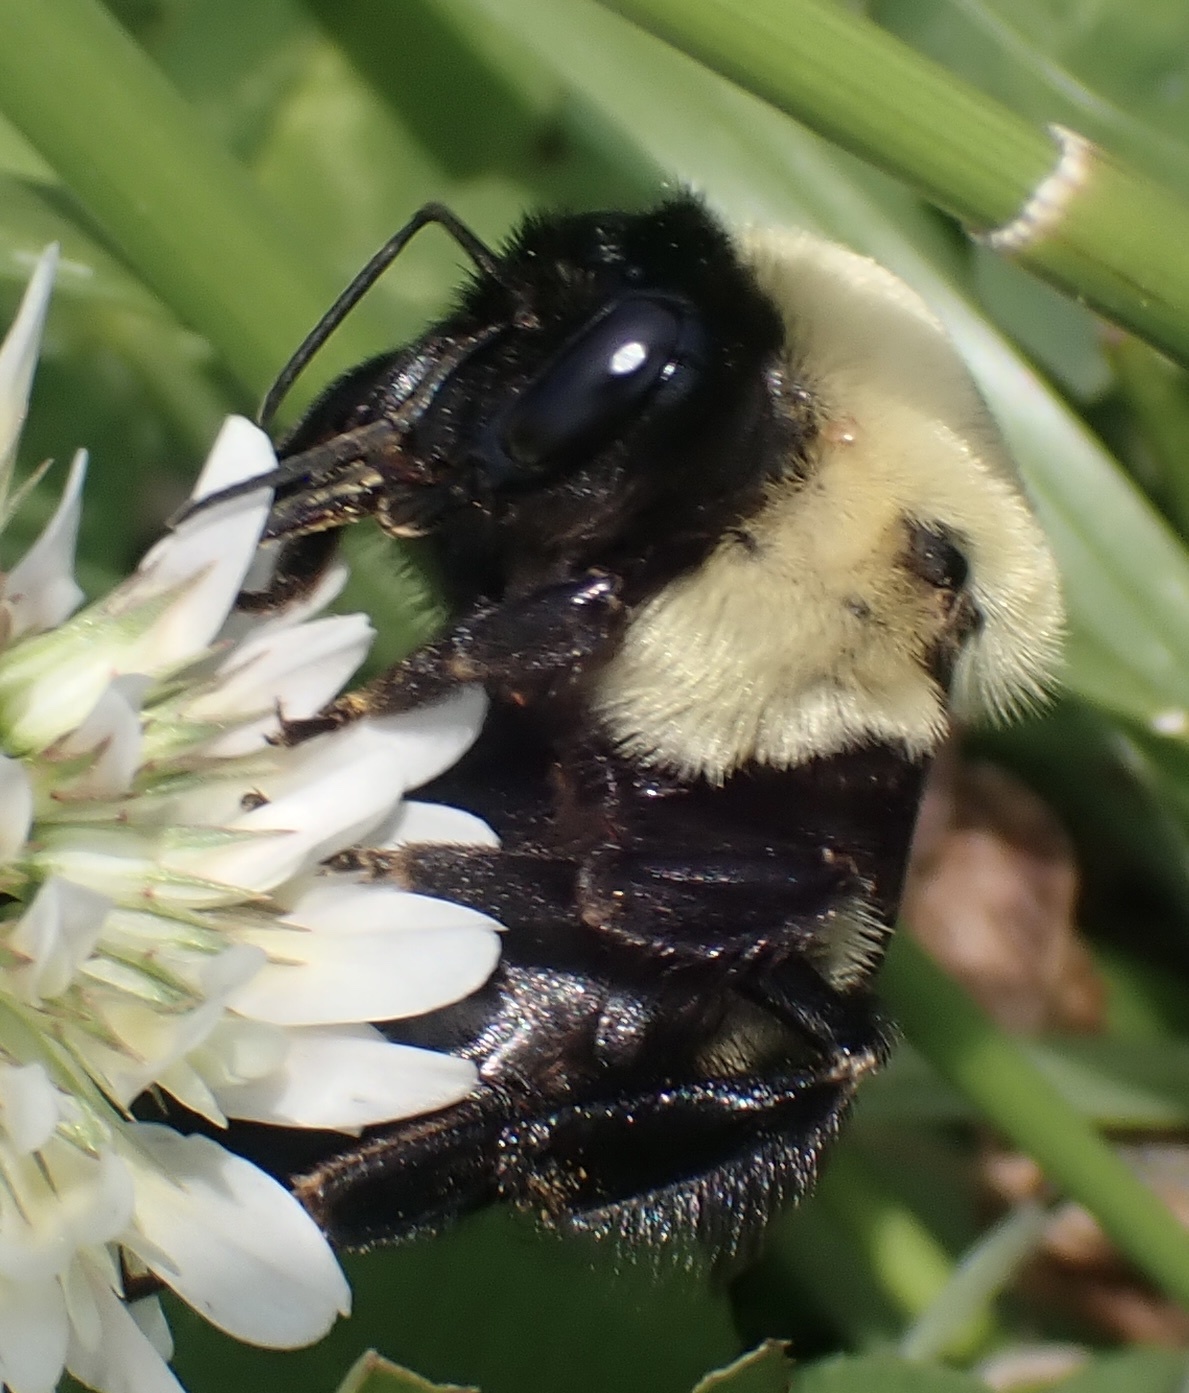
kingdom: Animalia
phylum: Arthropoda
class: Insecta
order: Hymenoptera
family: Apidae
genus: Bombus
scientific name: Bombus griseocollis
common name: Brown-belted bumble bee
